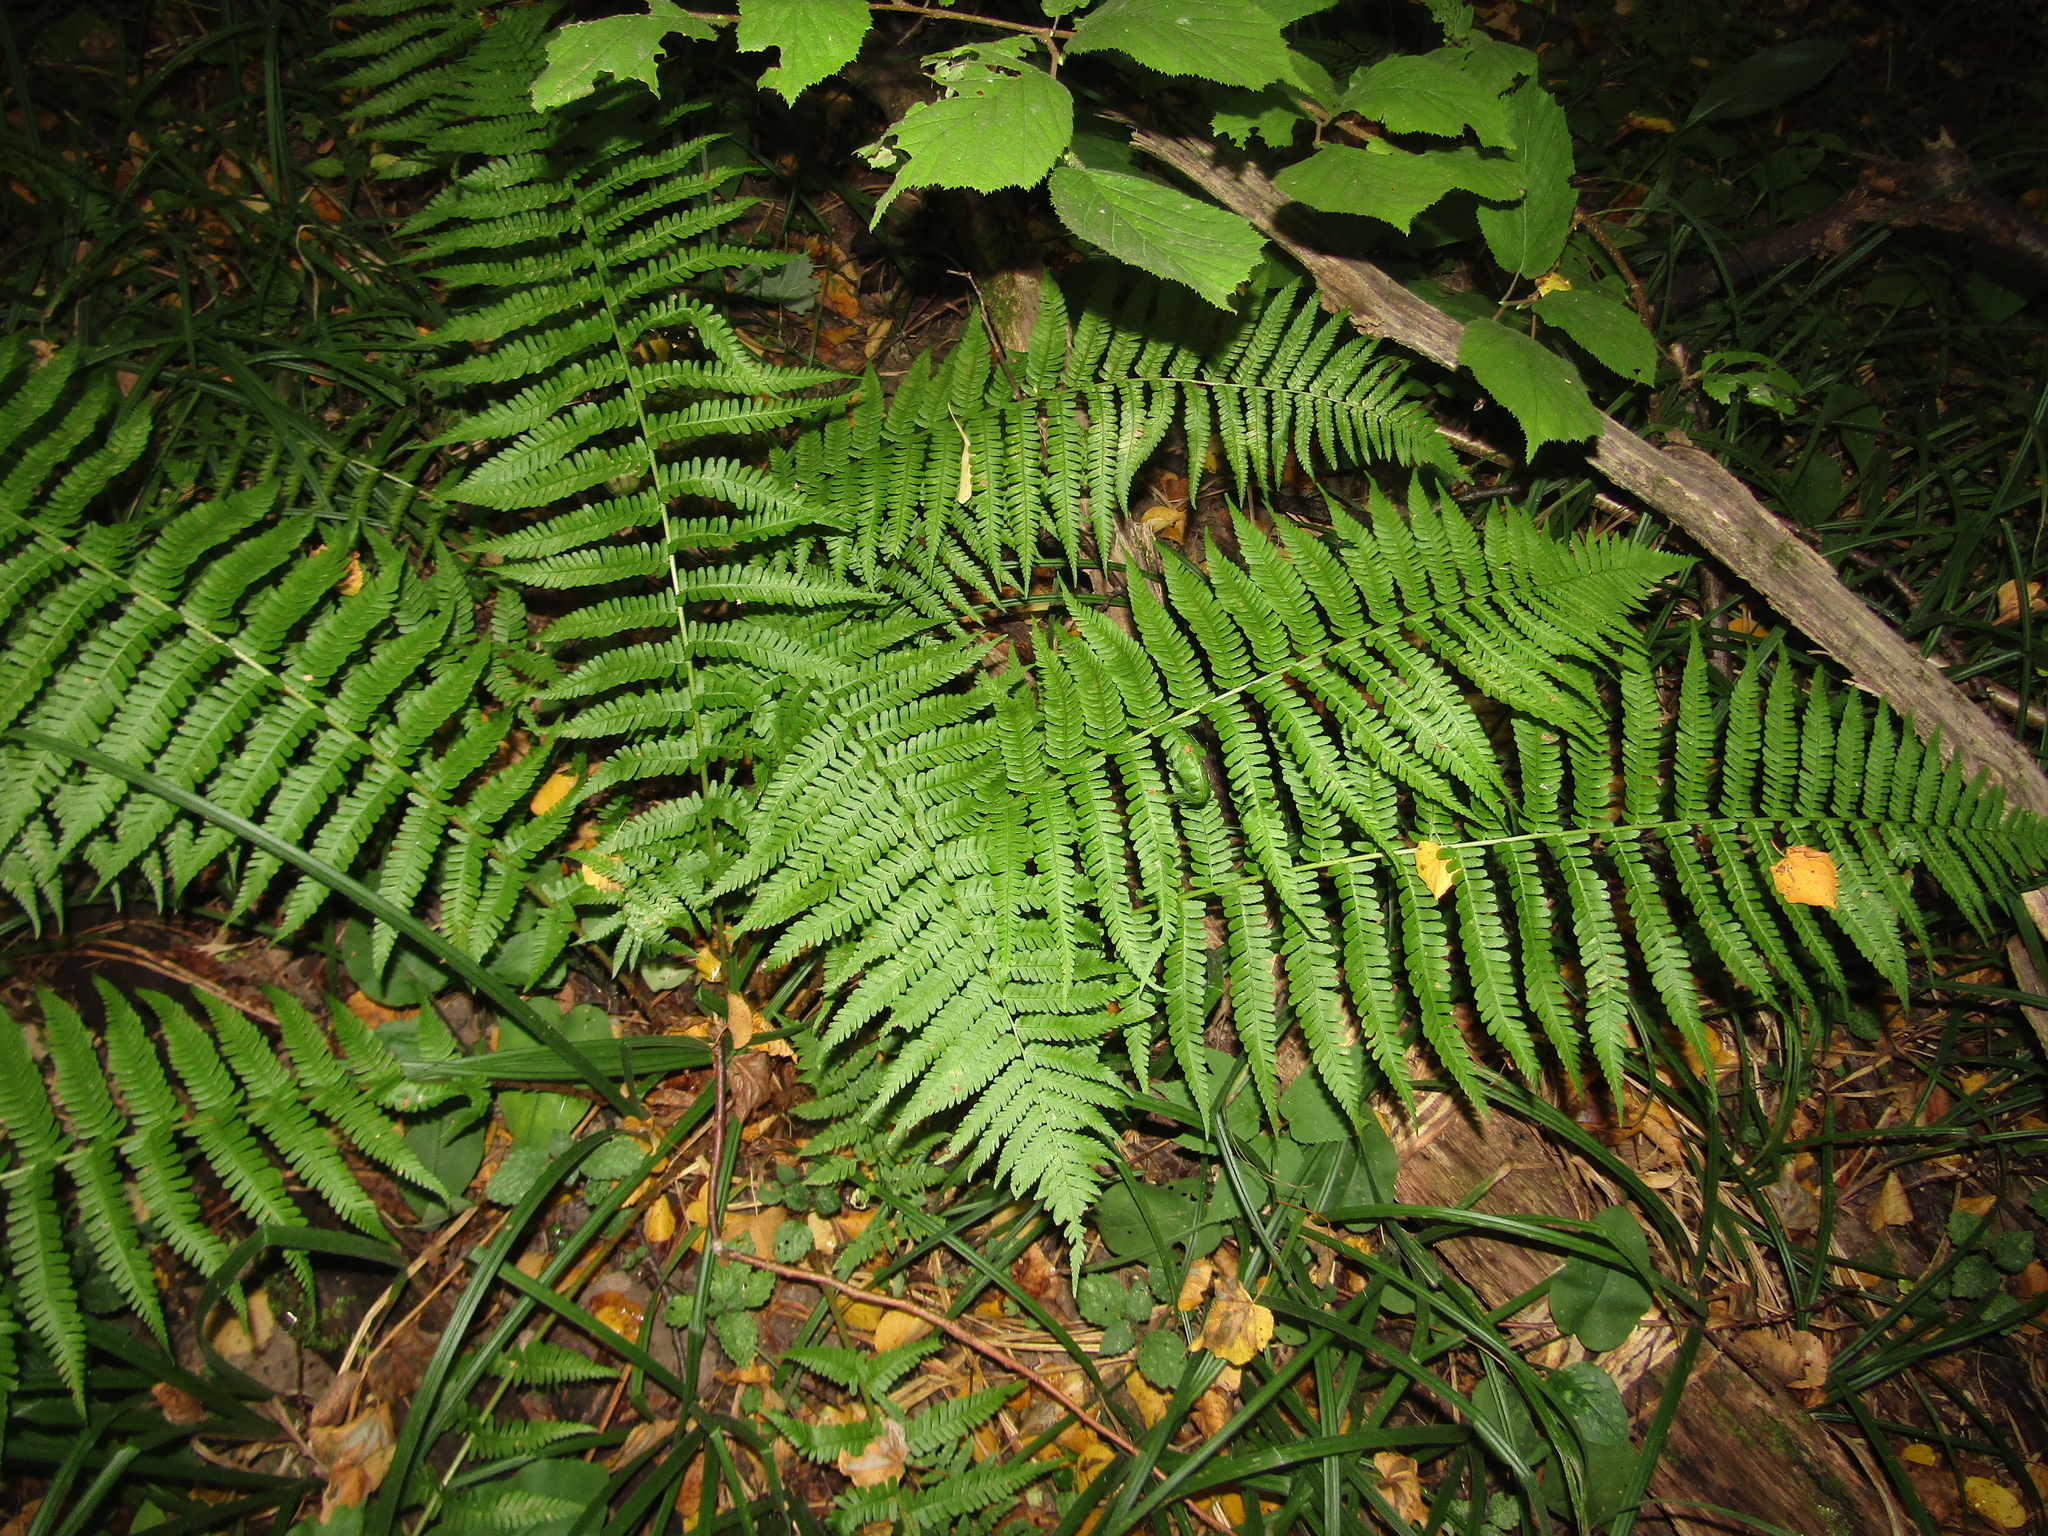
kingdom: Plantae
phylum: Tracheophyta
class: Polypodiopsida
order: Polypodiales
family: Dryopteridaceae
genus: Dryopteris
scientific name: Dryopteris filix-mas
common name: Male fern
